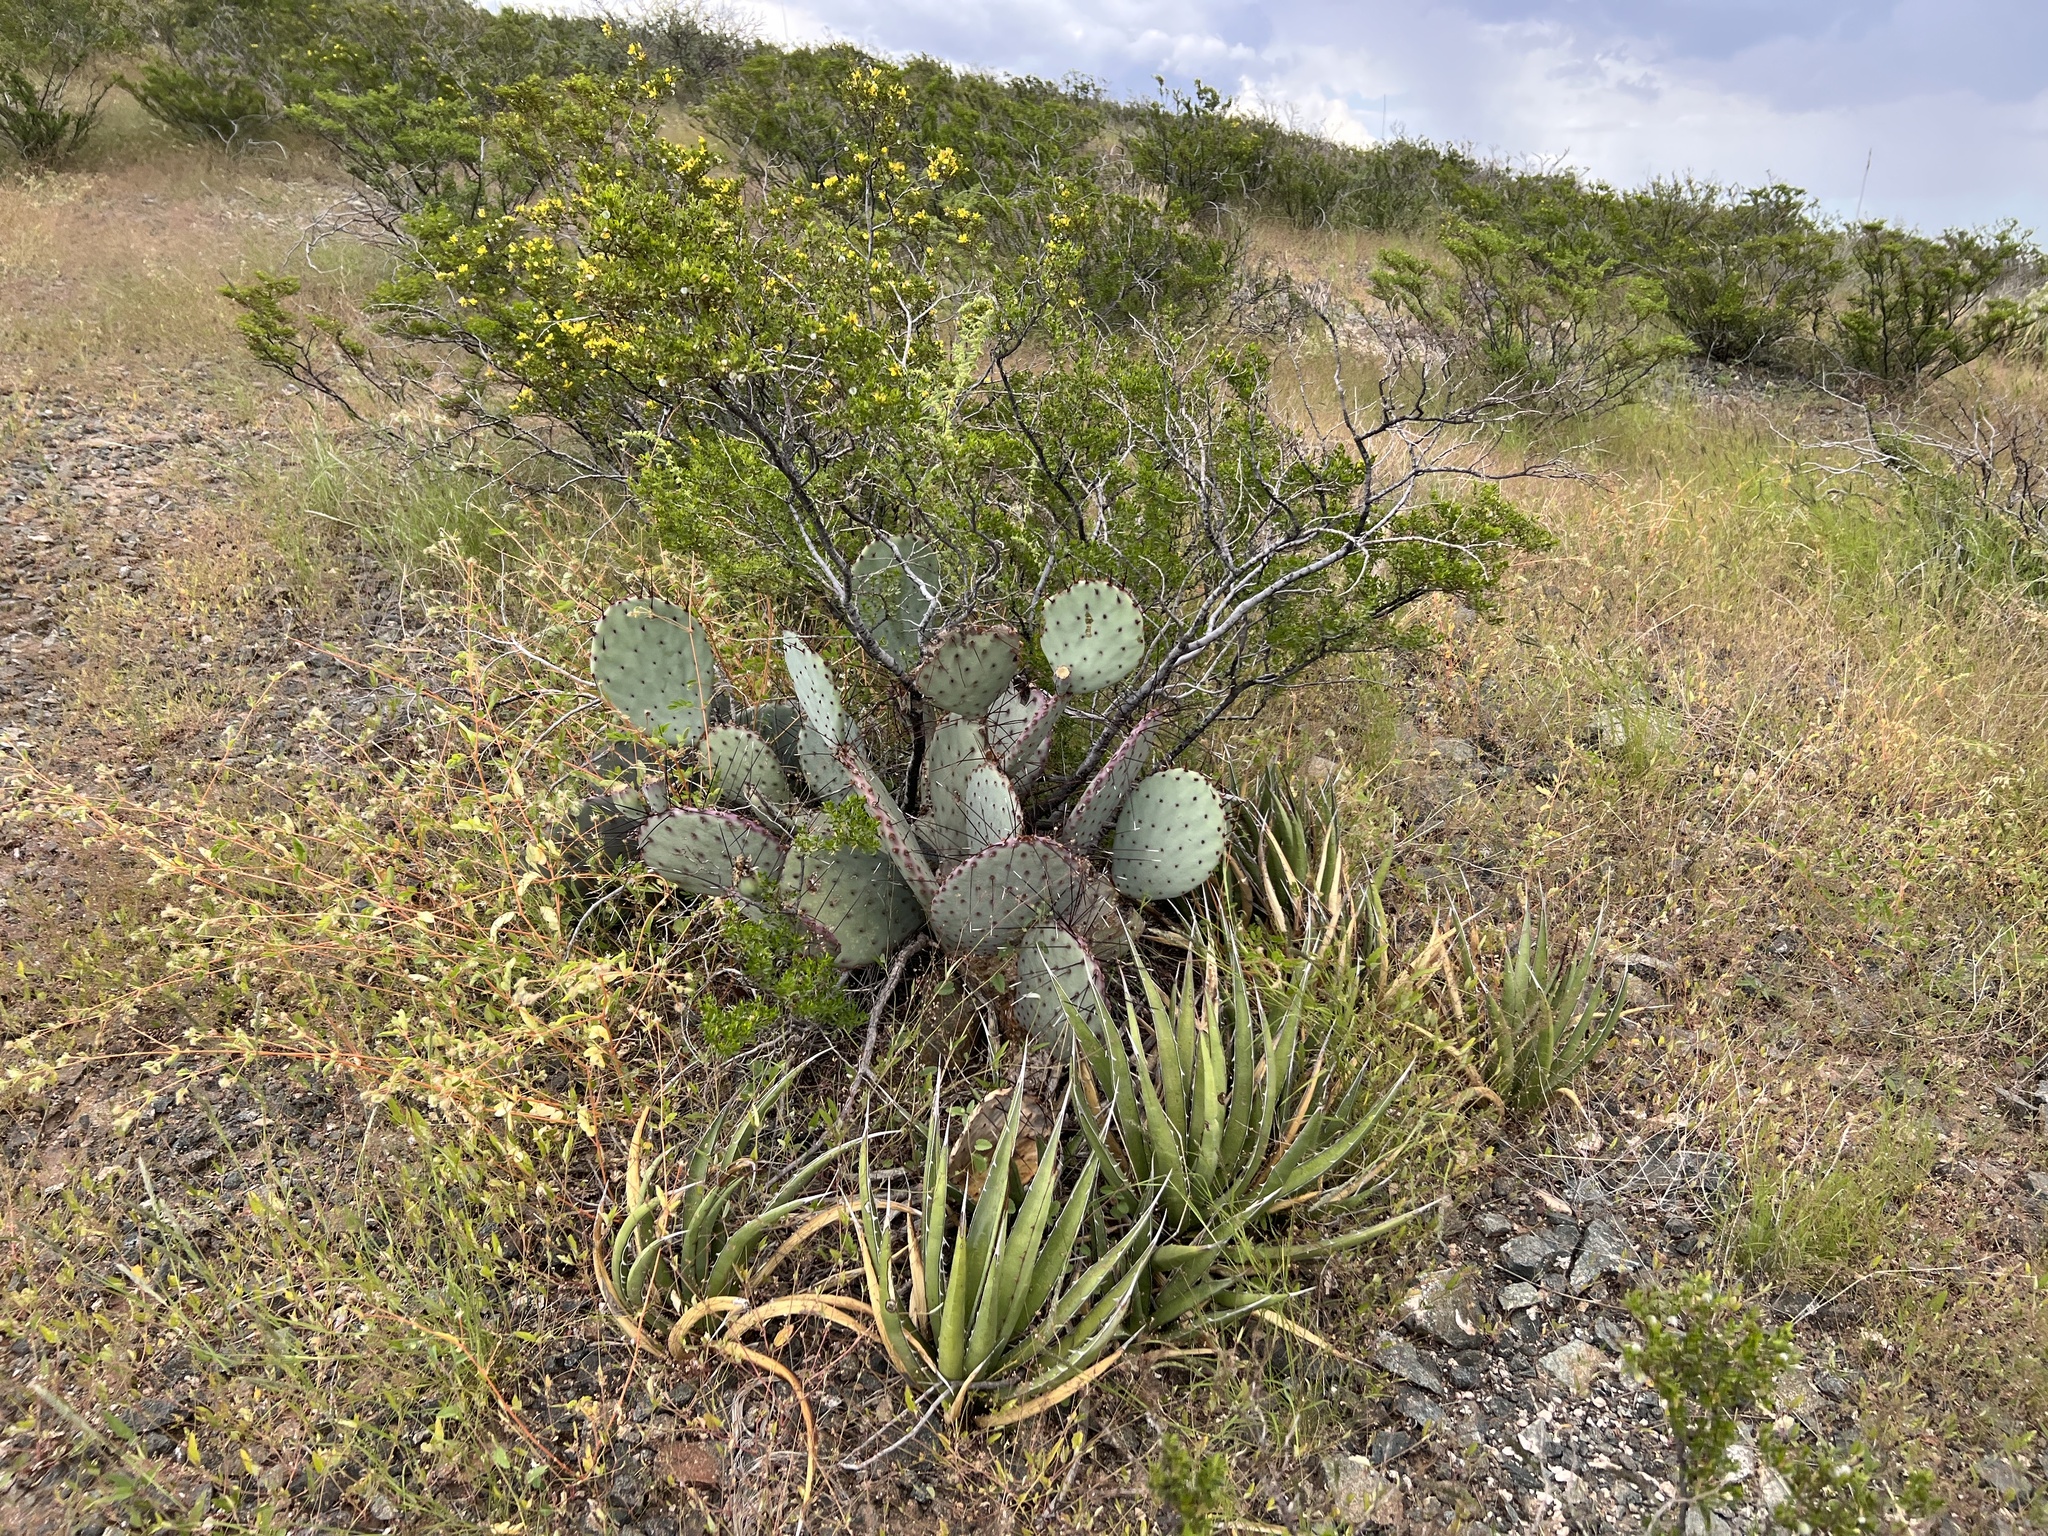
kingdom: Plantae
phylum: Tracheophyta
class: Magnoliopsida
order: Caryophyllales
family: Cactaceae
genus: Opuntia
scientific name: Opuntia macrocentra
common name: Purple prickly-pear
